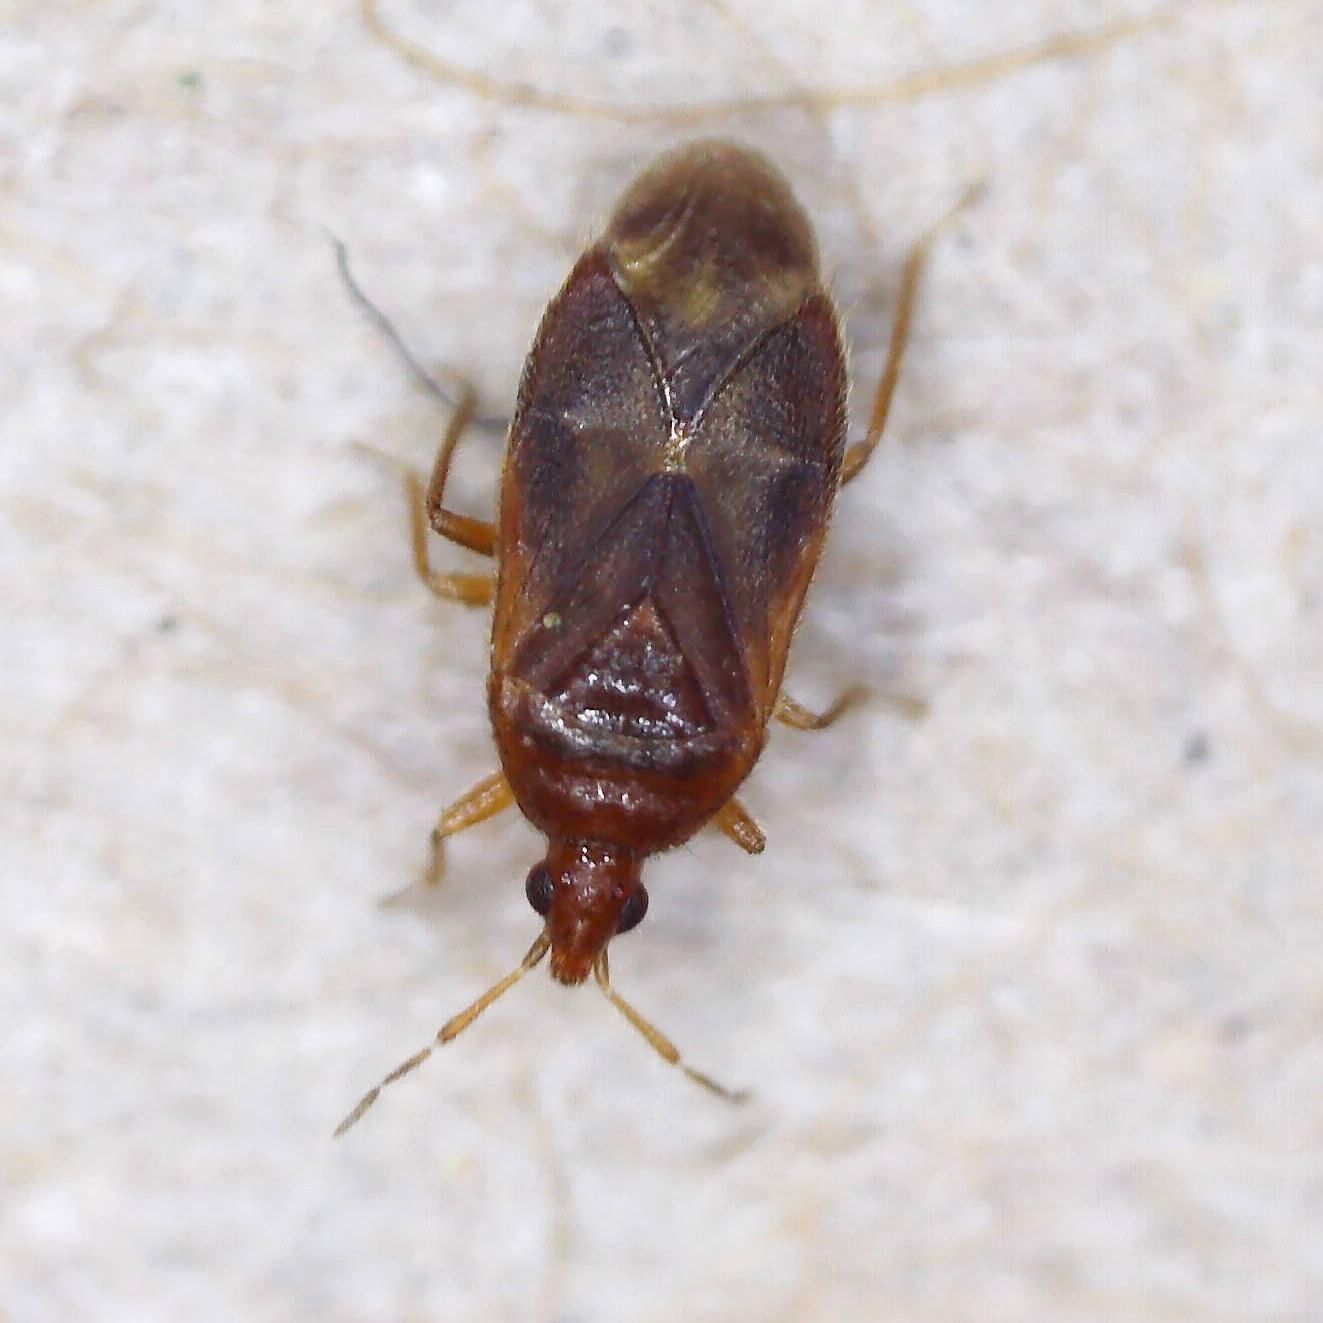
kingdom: Animalia
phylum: Arthropoda
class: Insecta
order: Hemiptera
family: Anthocoridae
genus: Cardiastethus
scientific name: Cardiastethus fasciiventris
